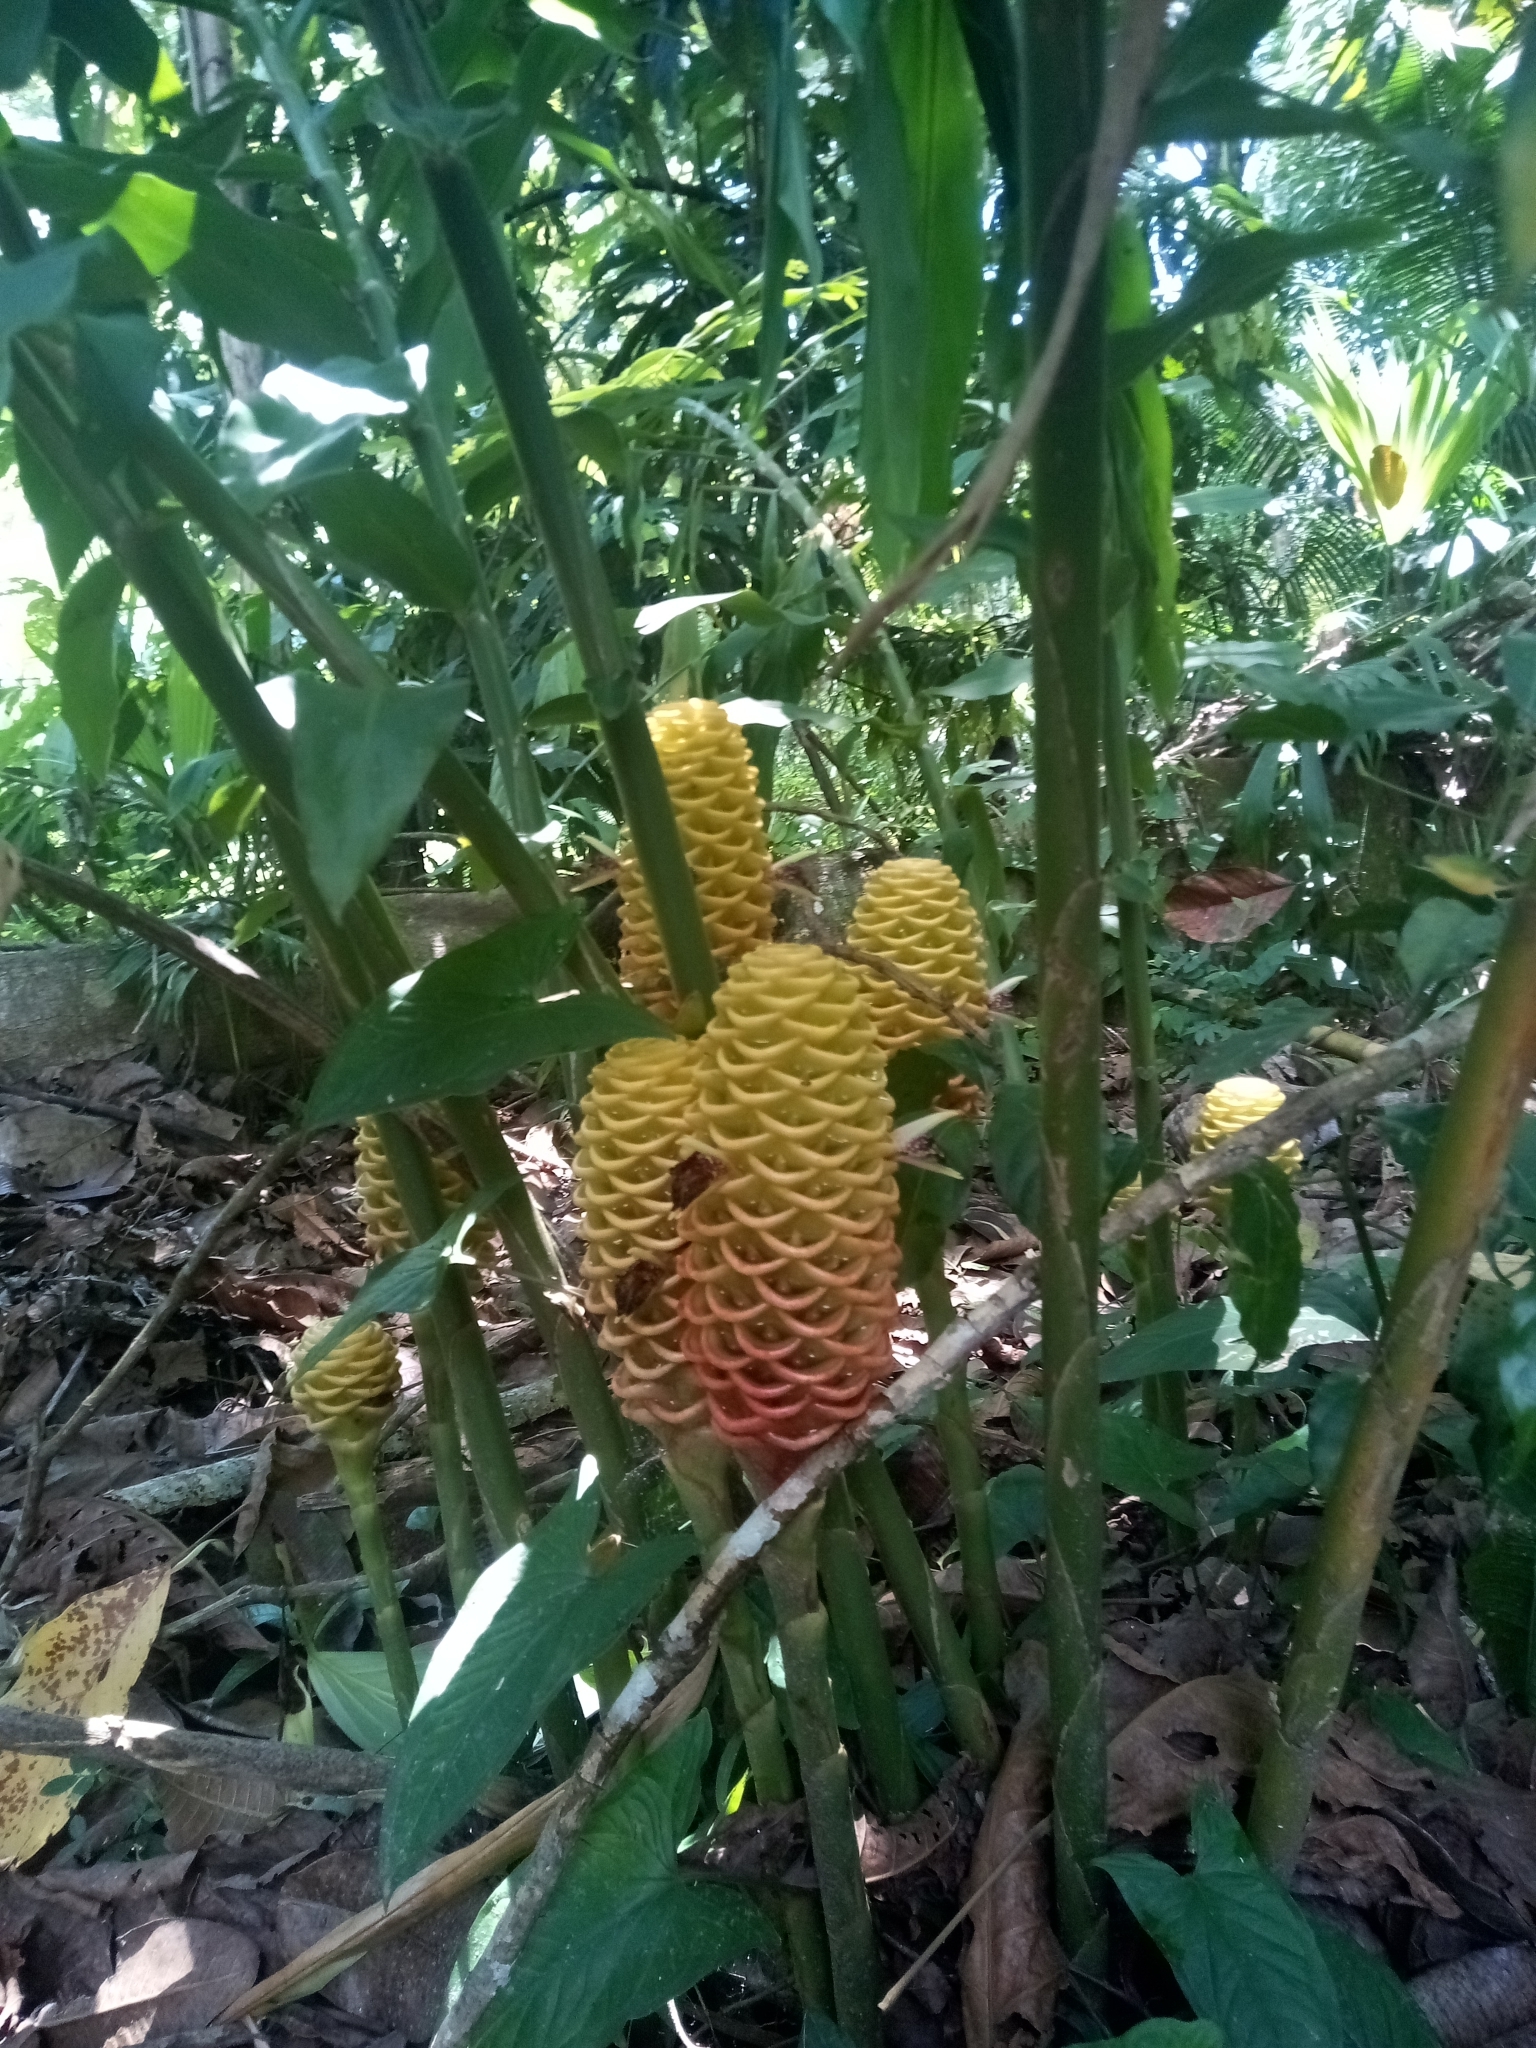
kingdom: Plantae
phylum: Tracheophyta
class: Liliopsida
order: Zingiberales
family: Zingiberaceae
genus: Zingiber
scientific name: Zingiber spectabile
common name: Beehive ginger
